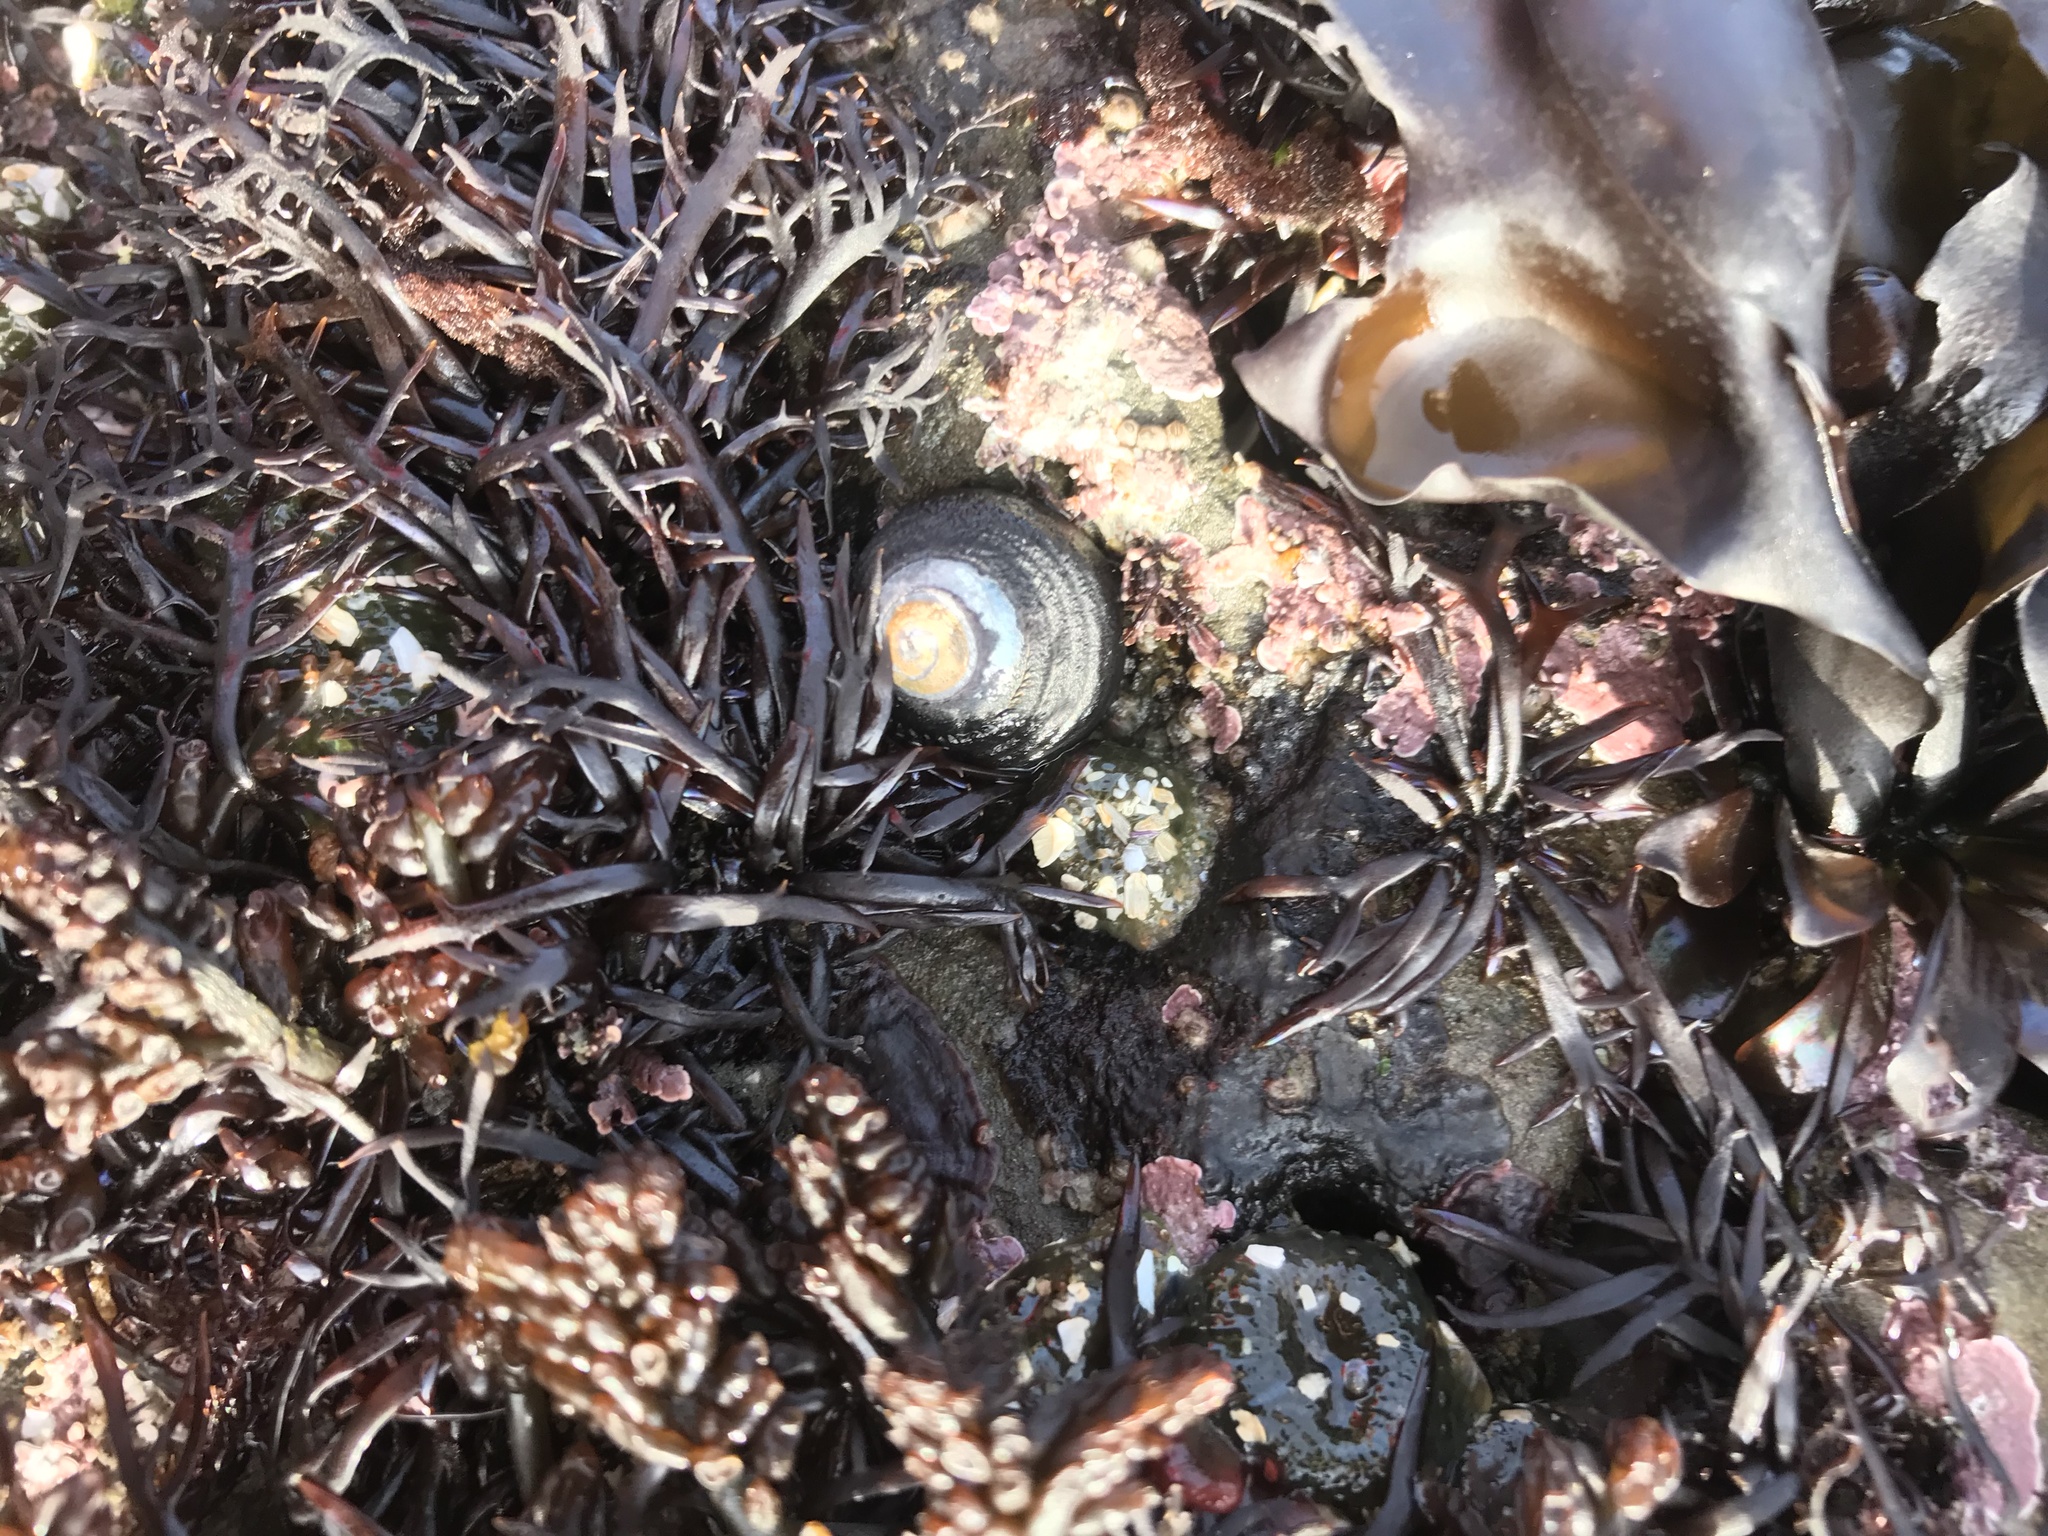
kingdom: Animalia
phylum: Mollusca
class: Gastropoda
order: Trochida
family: Tegulidae
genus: Tegula
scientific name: Tegula funebralis
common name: Black tegula
